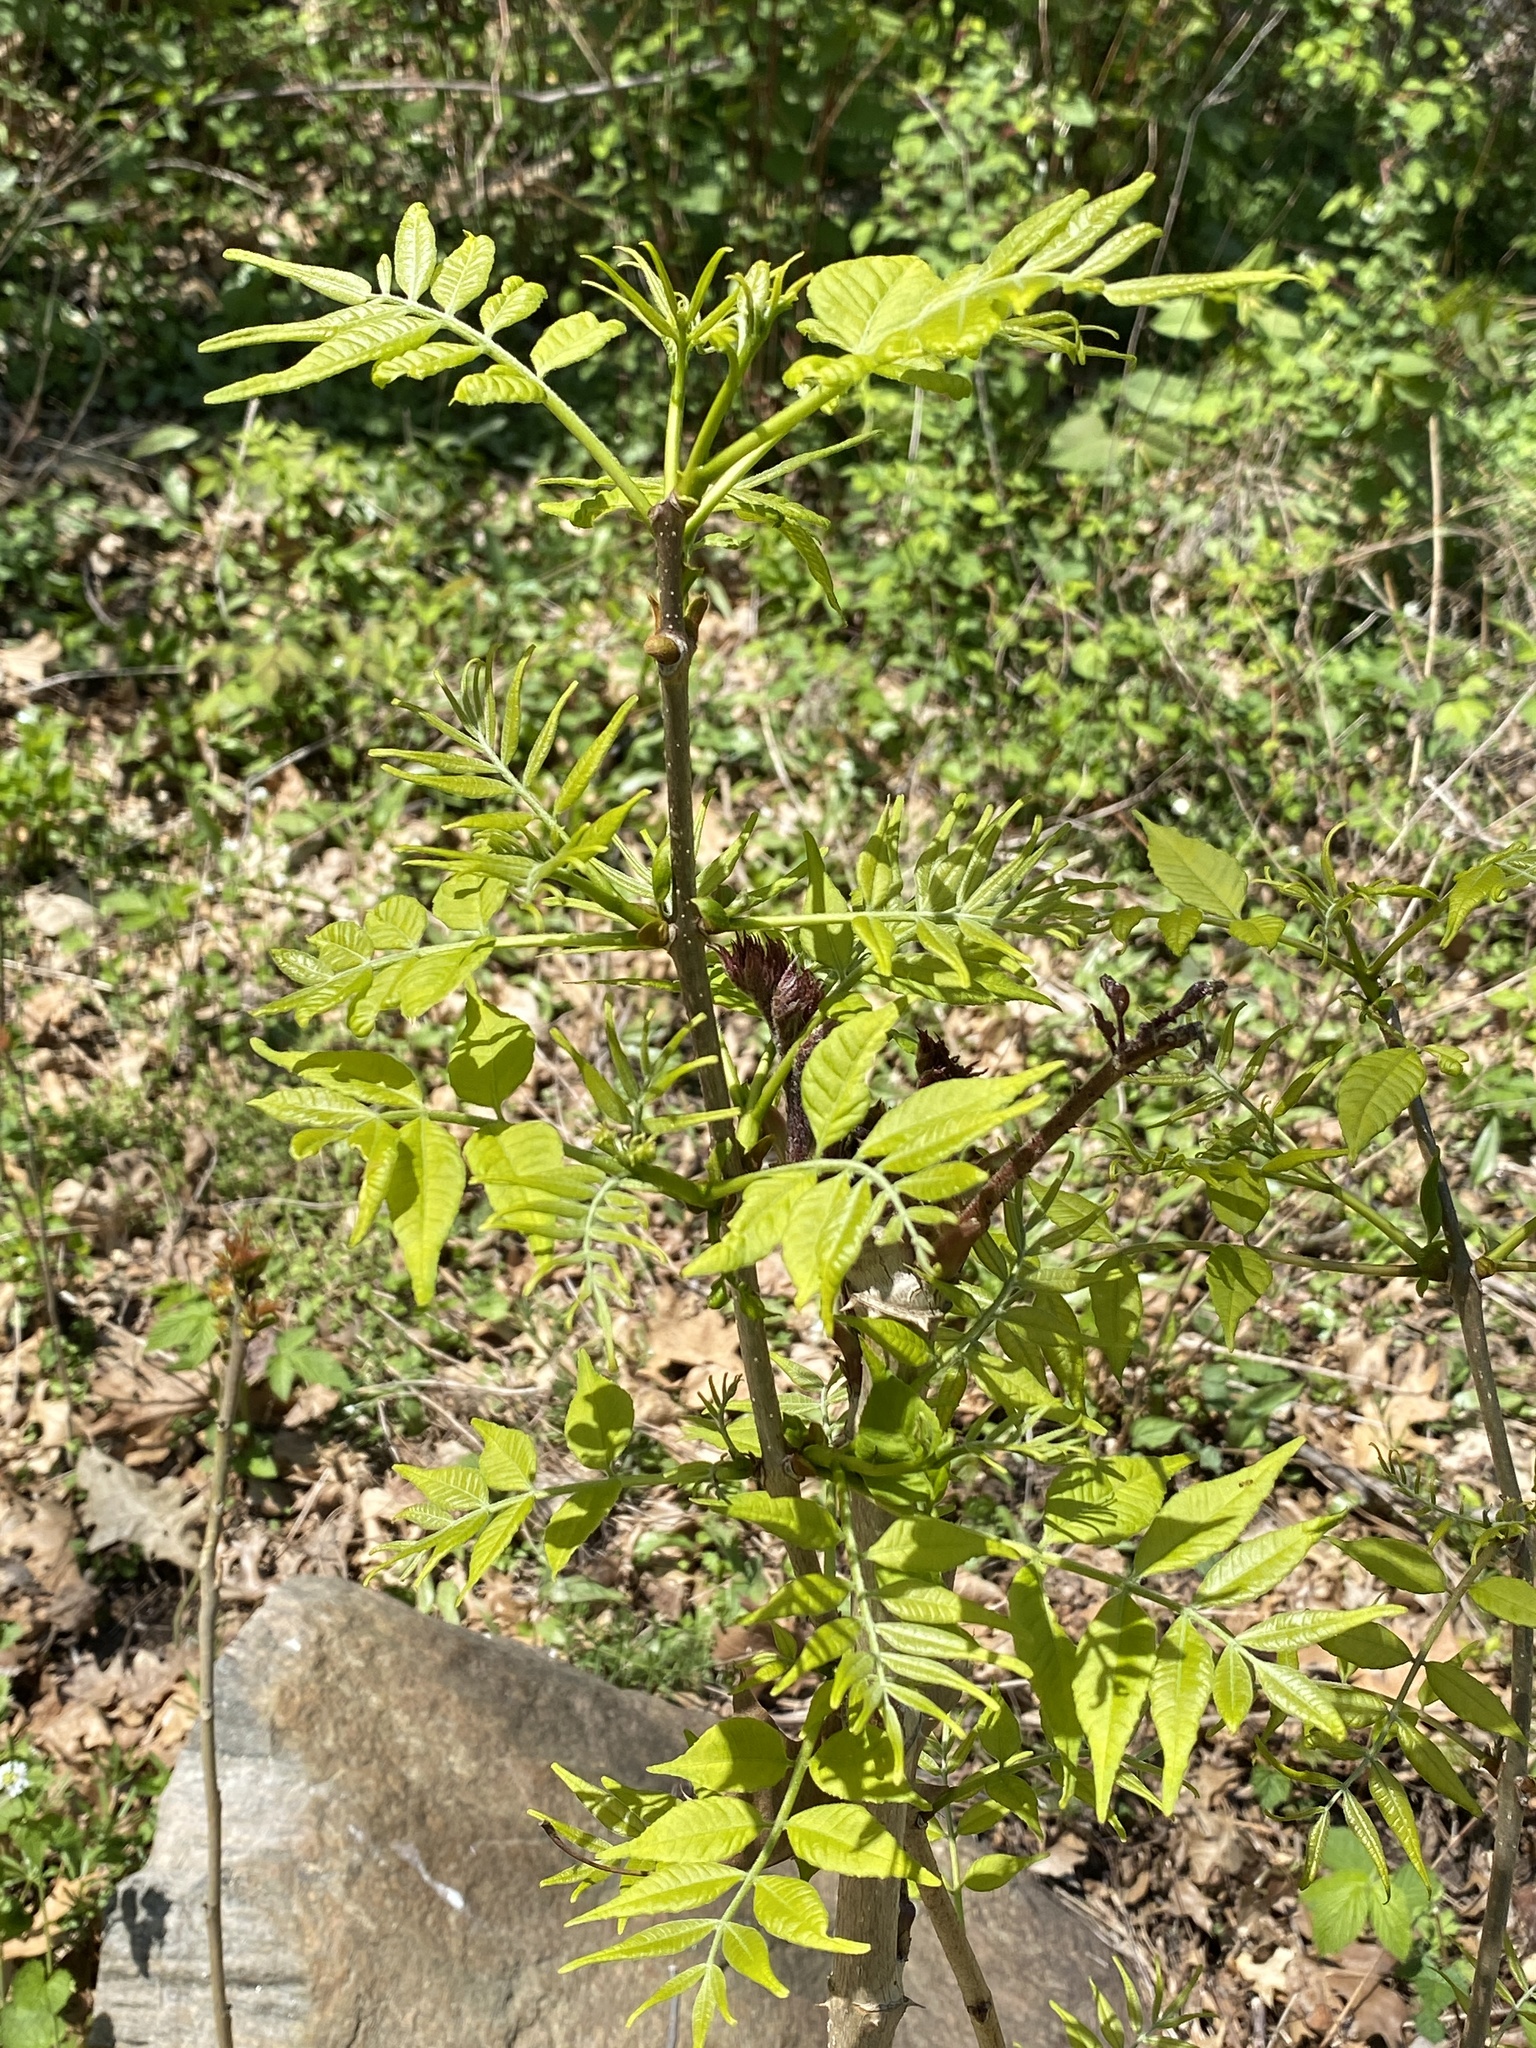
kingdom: Plantae
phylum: Tracheophyta
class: Magnoliopsida
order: Apiales
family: Araliaceae
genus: Aralia
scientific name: Aralia elata
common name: Japanese angelica-tree
